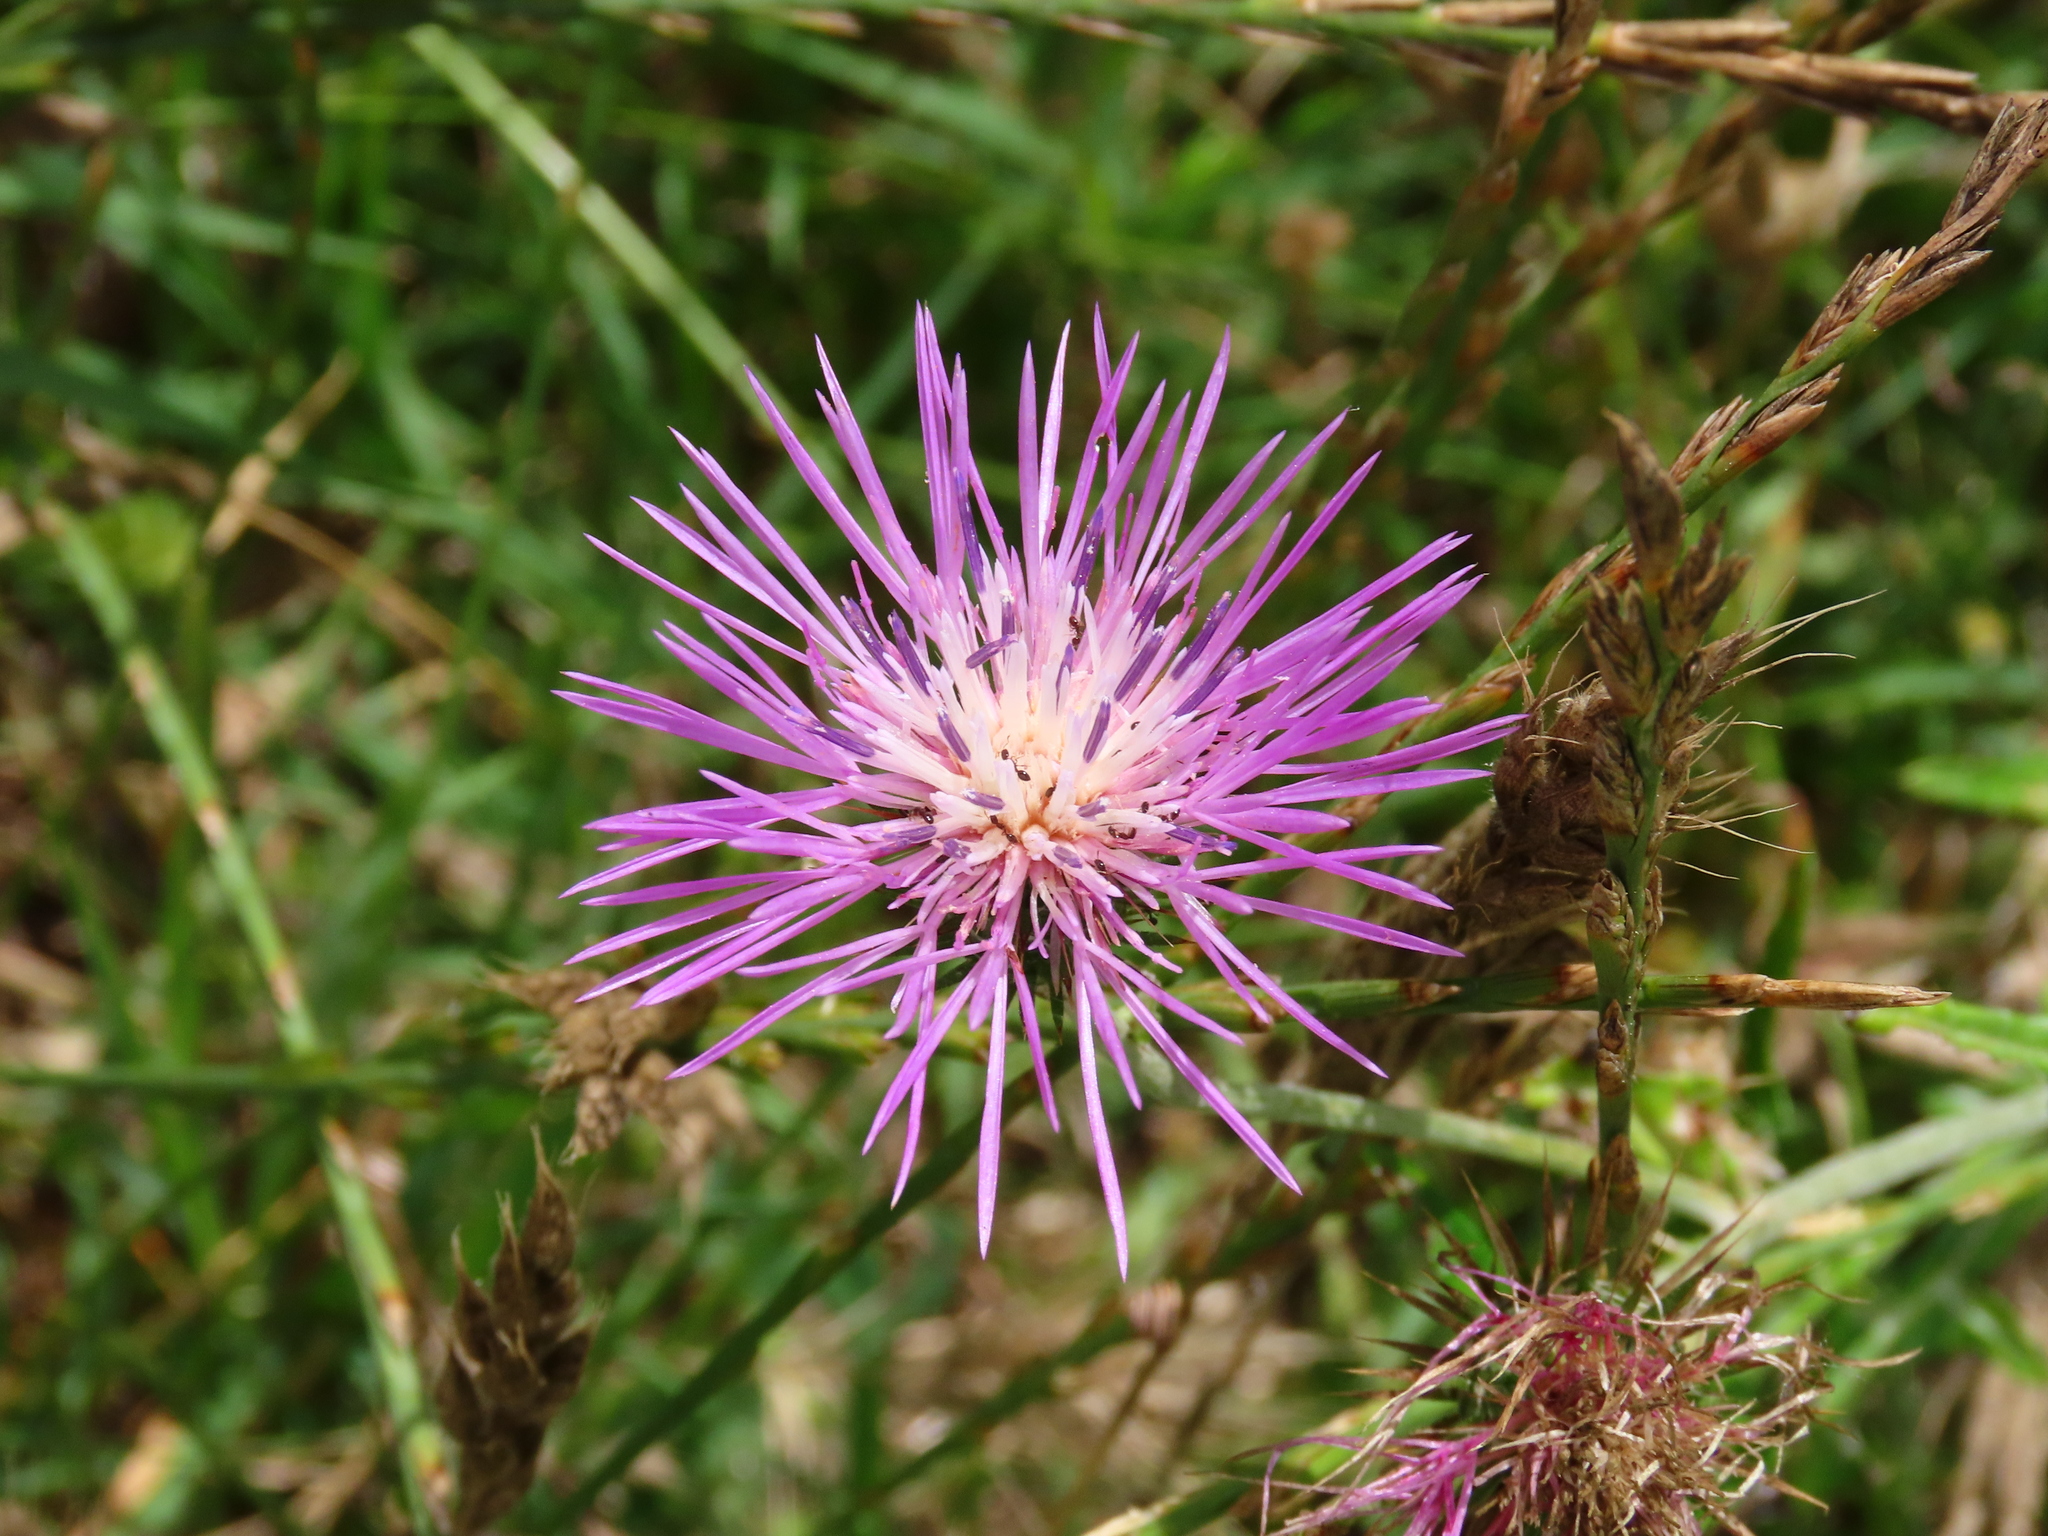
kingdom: Plantae
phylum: Tracheophyta
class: Magnoliopsida
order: Asterales
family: Asteraceae
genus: Galactites
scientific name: Galactites tomentosa
